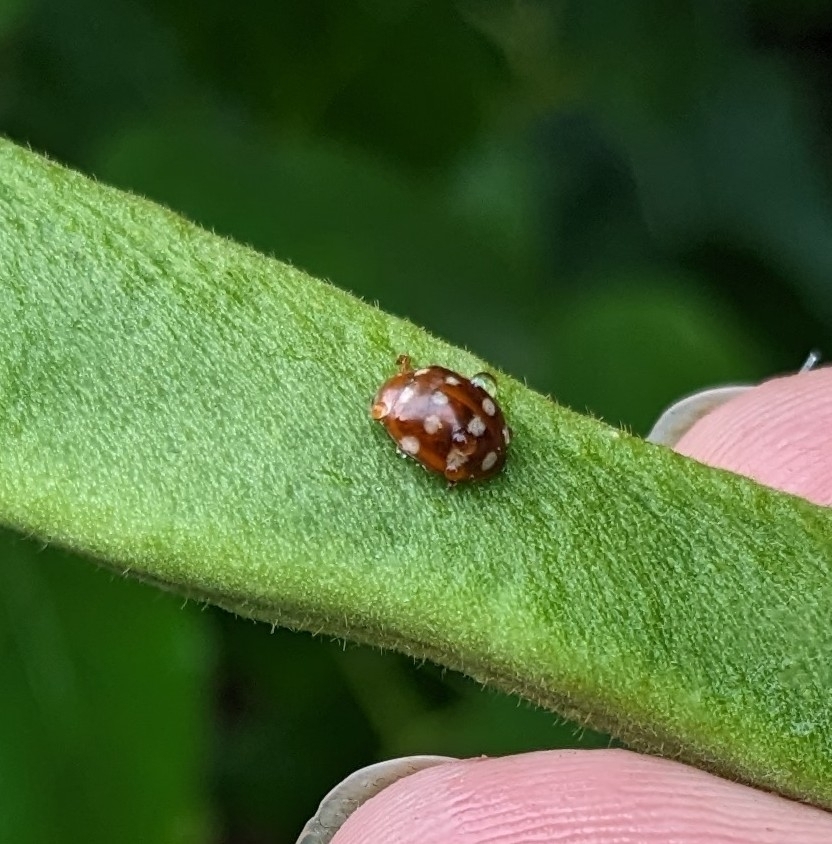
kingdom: Animalia
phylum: Arthropoda
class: Insecta
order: Coleoptera
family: Coccinellidae
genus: Calvia
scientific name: Calvia quatuordecimguttata
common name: Cream-spot ladybird
